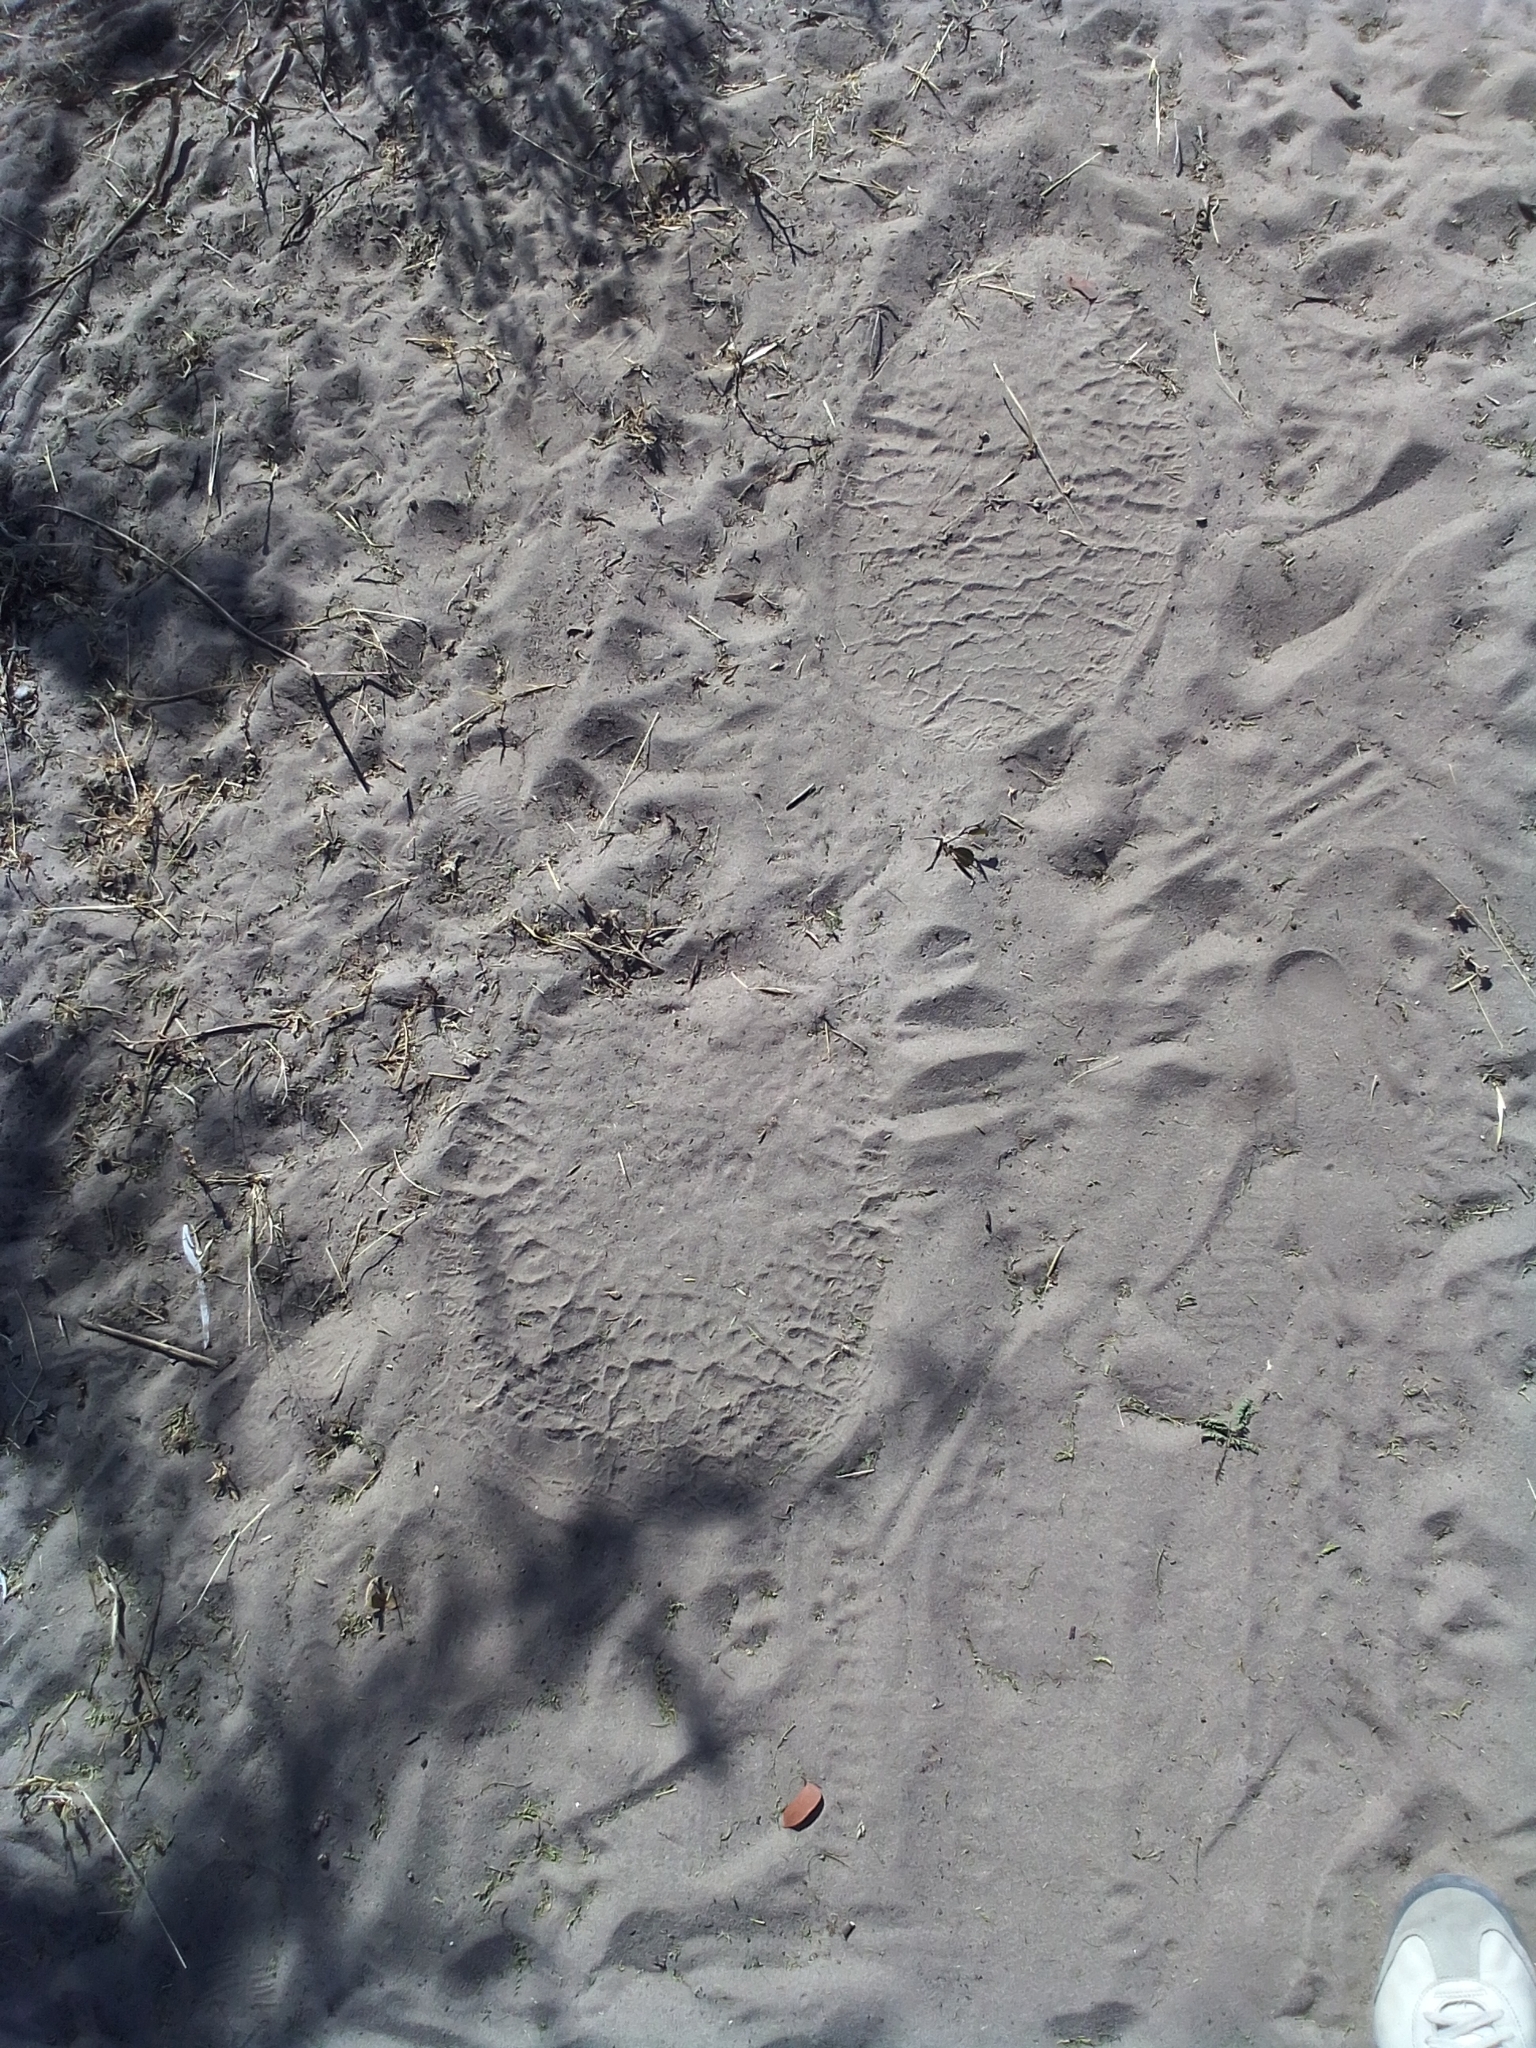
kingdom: Animalia
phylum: Chordata
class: Mammalia
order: Proboscidea
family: Elephantidae
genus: Loxodonta
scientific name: Loxodonta africana
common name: African elephant
